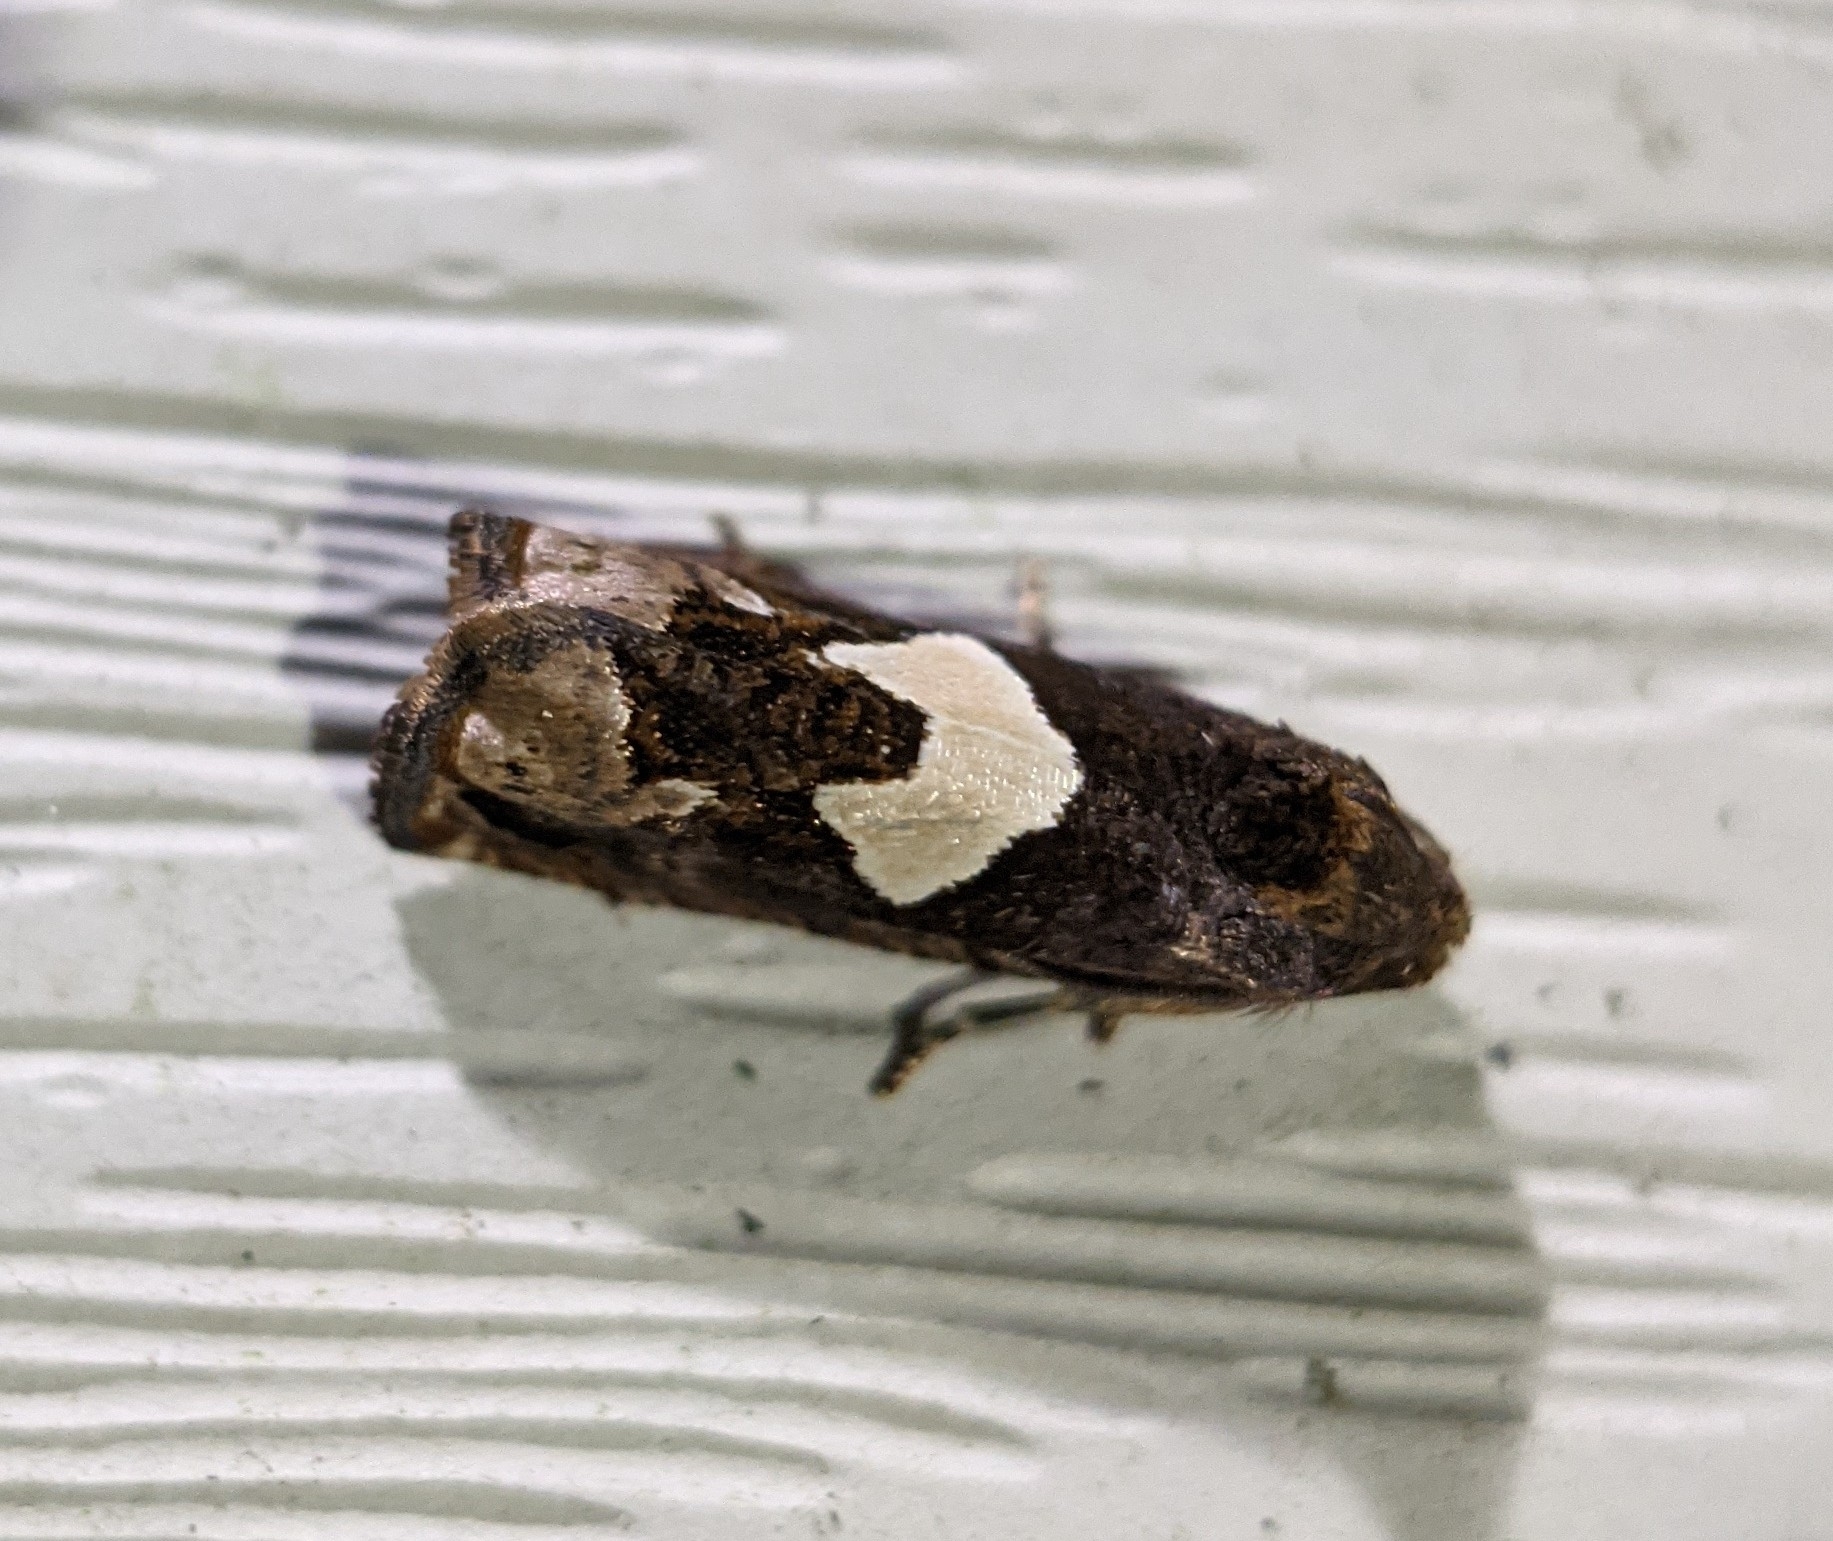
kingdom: Animalia
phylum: Arthropoda
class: Insecta
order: Lepidoptera
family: Tortricidae
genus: Epiblema
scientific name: Epiblema otiosana
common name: Bidens borer moth
